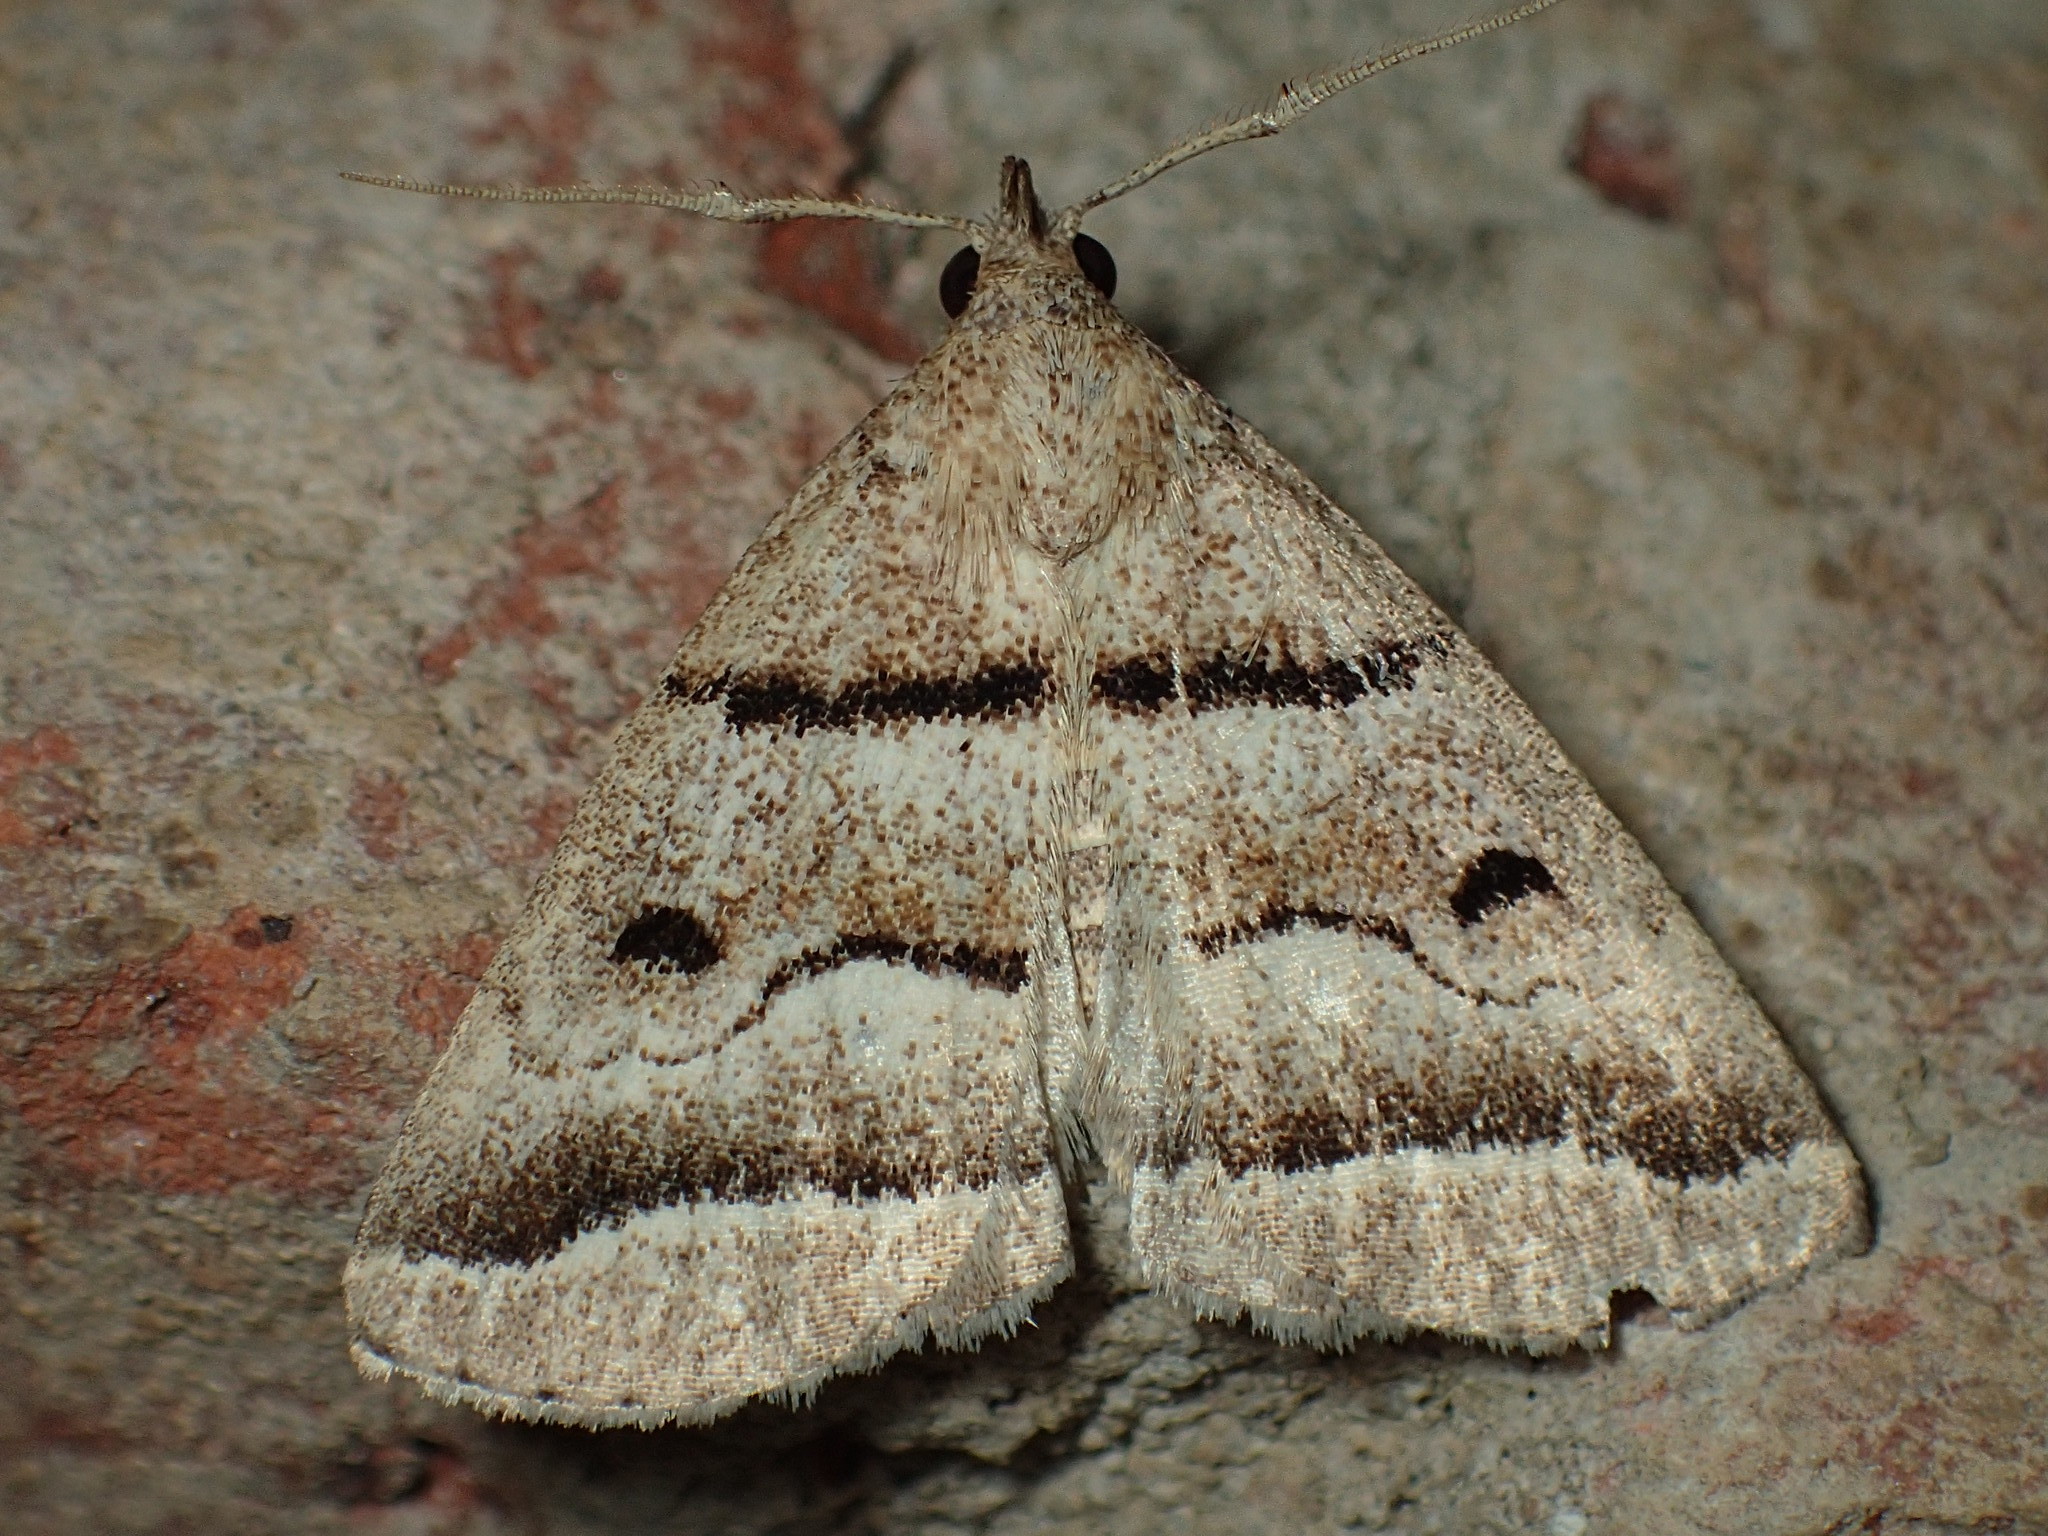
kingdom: Animalia
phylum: Arthropoda
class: Insecta
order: Lepidoptera
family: Erebidae
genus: Zanclognatha
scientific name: Zanclognatha atrilineella
